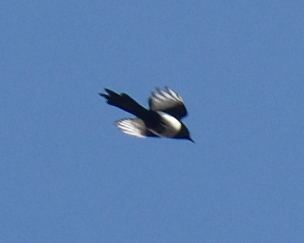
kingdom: Animalia
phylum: Chordata
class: Aves
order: Passeriformes
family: Corvidae
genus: Pica
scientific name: Pica pica
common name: Eurasian magpie
